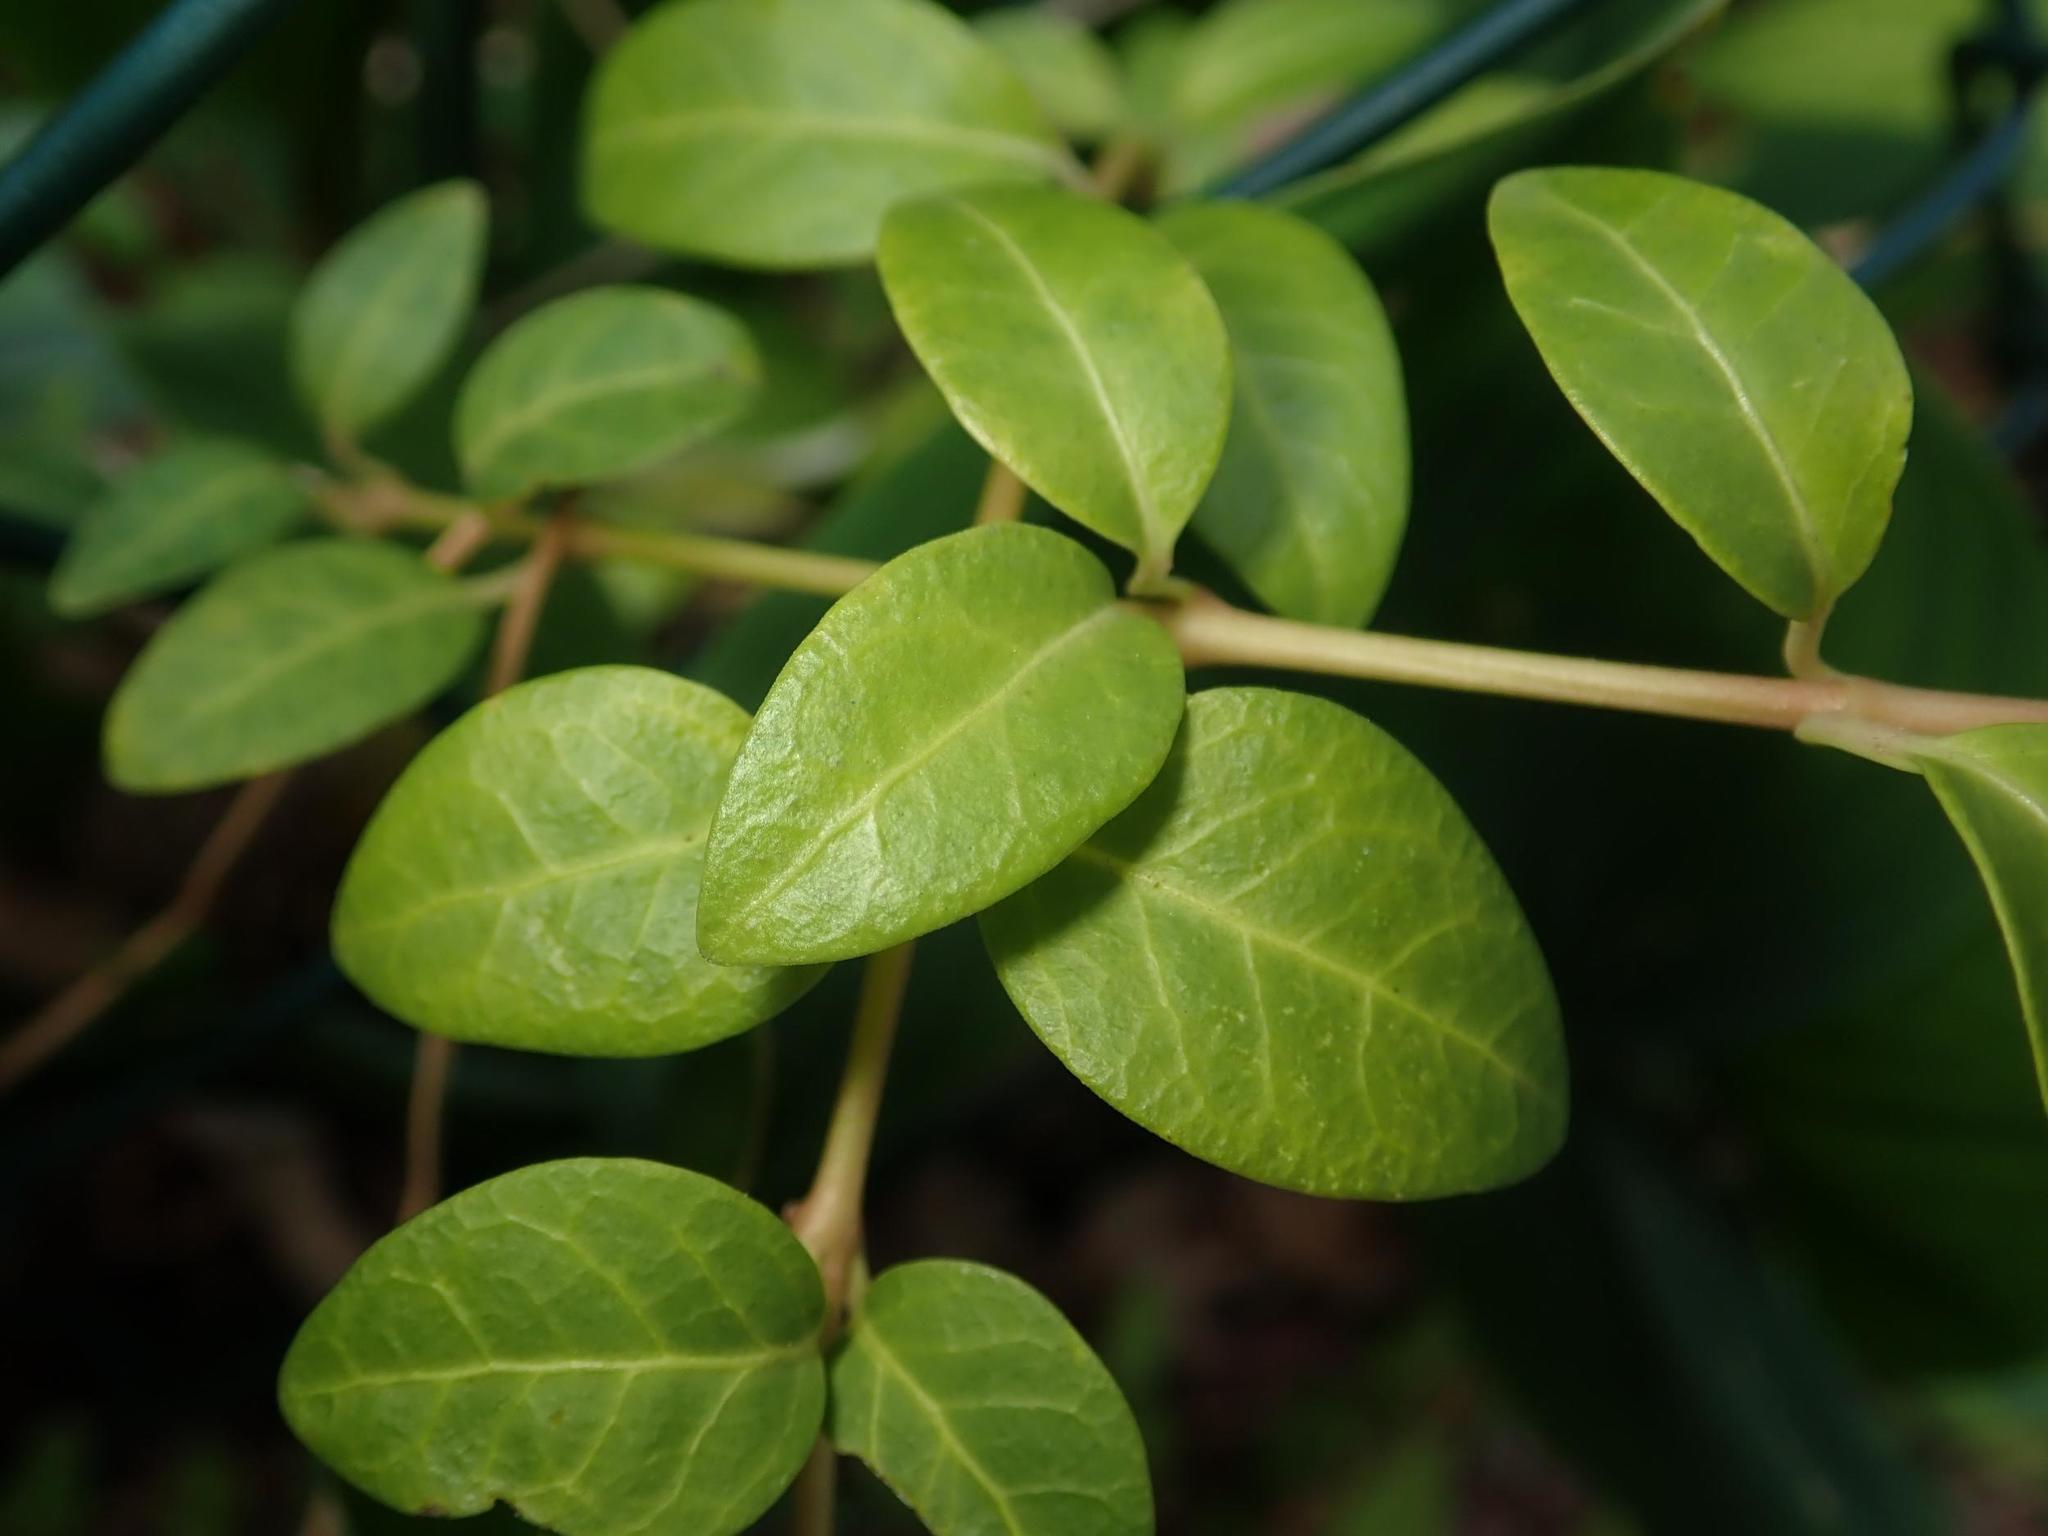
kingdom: Plantae
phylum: Tracheophyta
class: Magnoliopsida
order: Gentianales
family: Apocynaceae
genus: Vinca
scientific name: Vinca minor
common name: Lesser periwinkle
